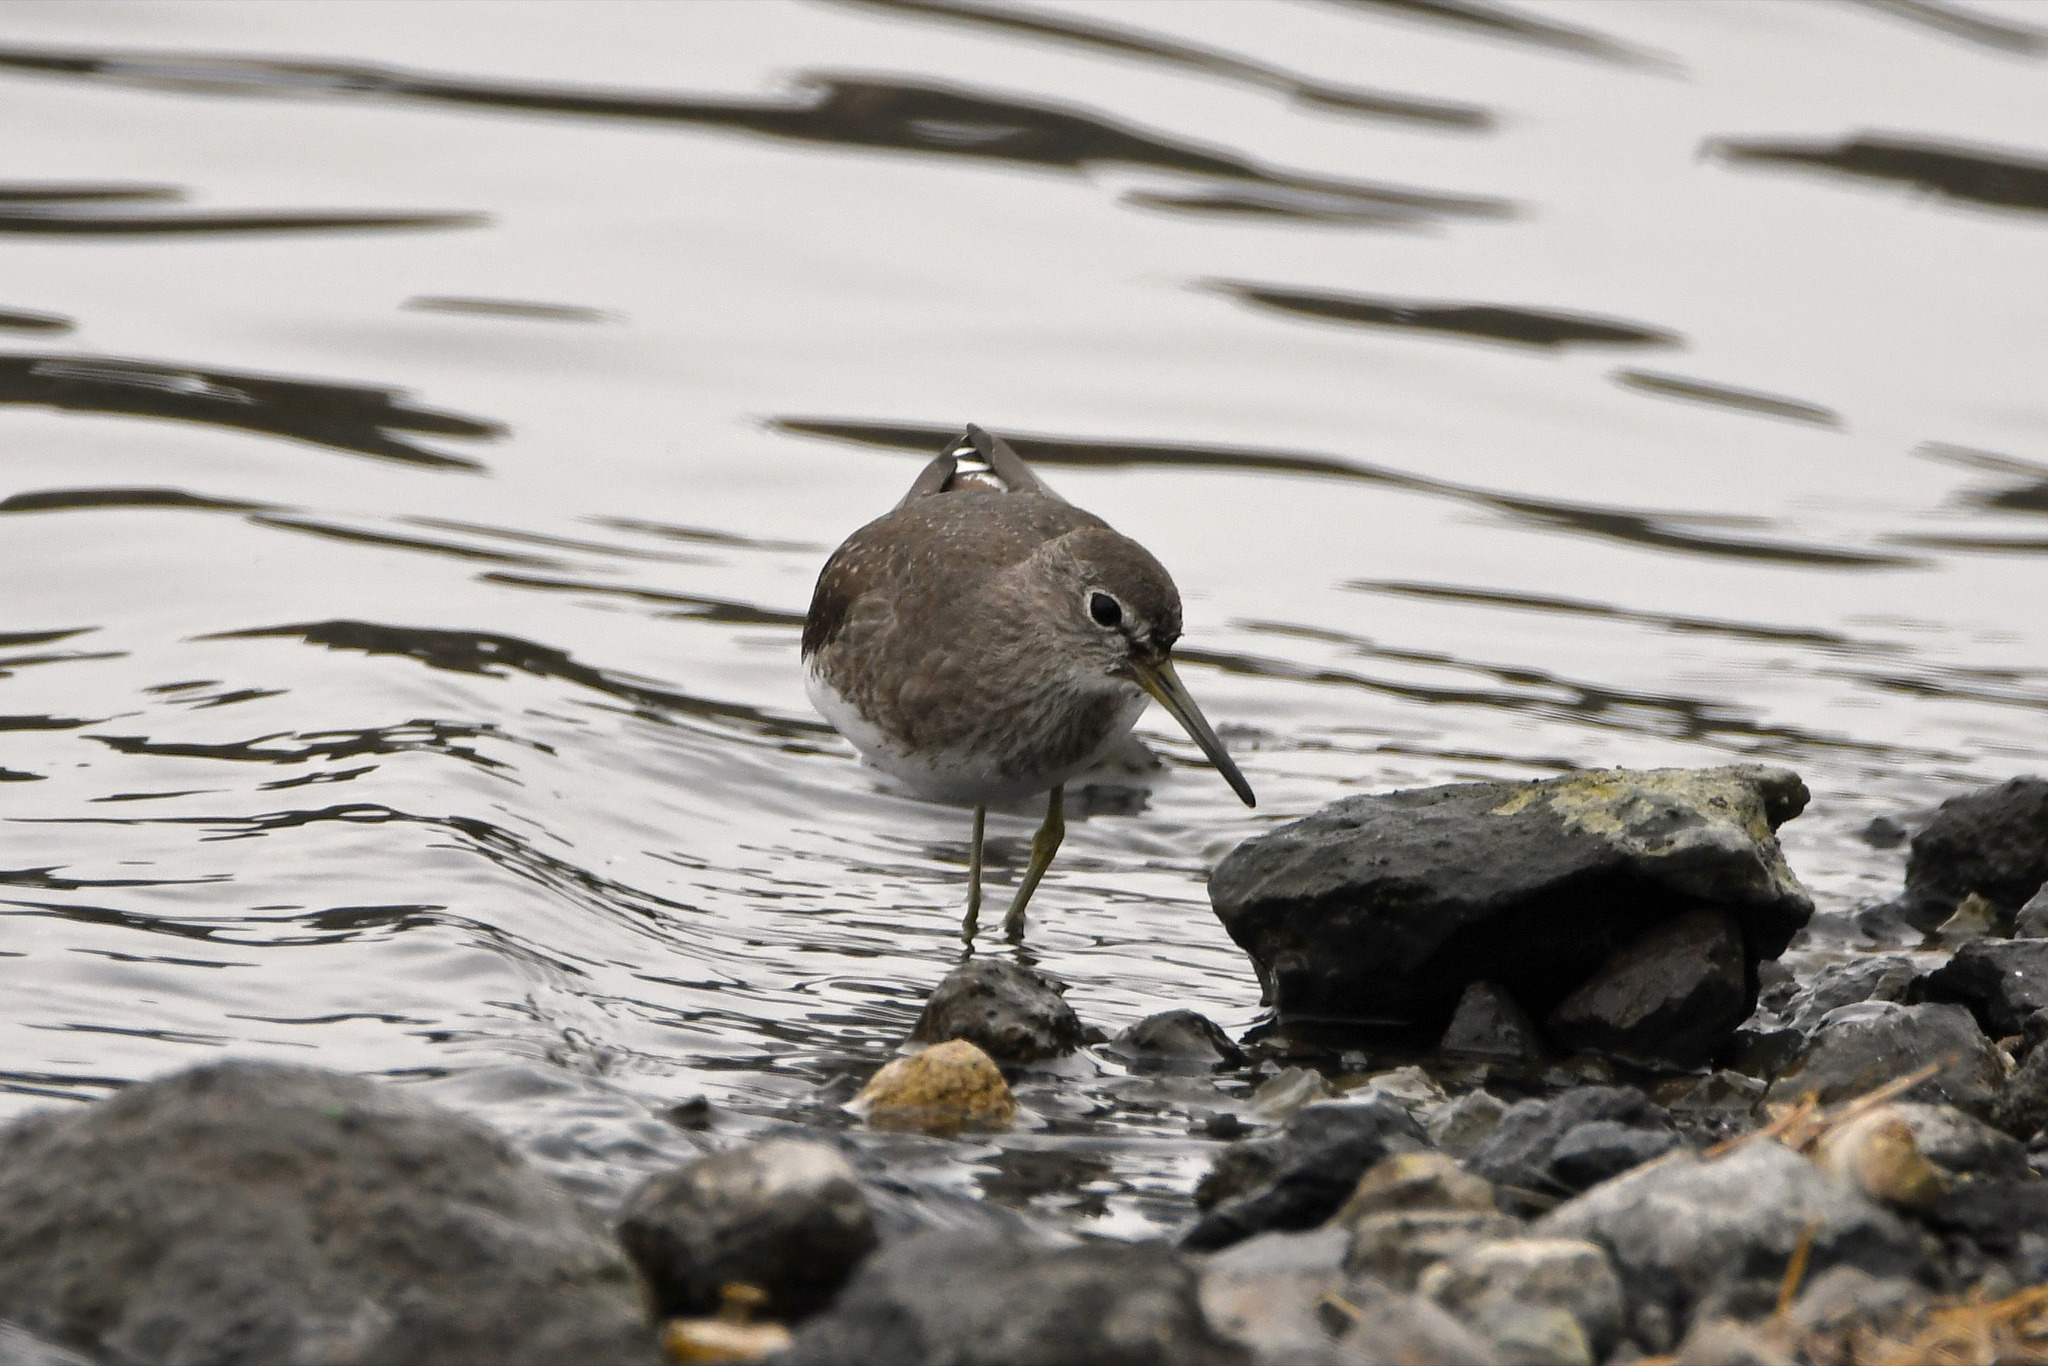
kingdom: Animalia
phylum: Chordata
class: Aves
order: Charadriiformes
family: Scolopacidae
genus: Tringa
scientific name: Tringa ochropus
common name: Green sandpiper
